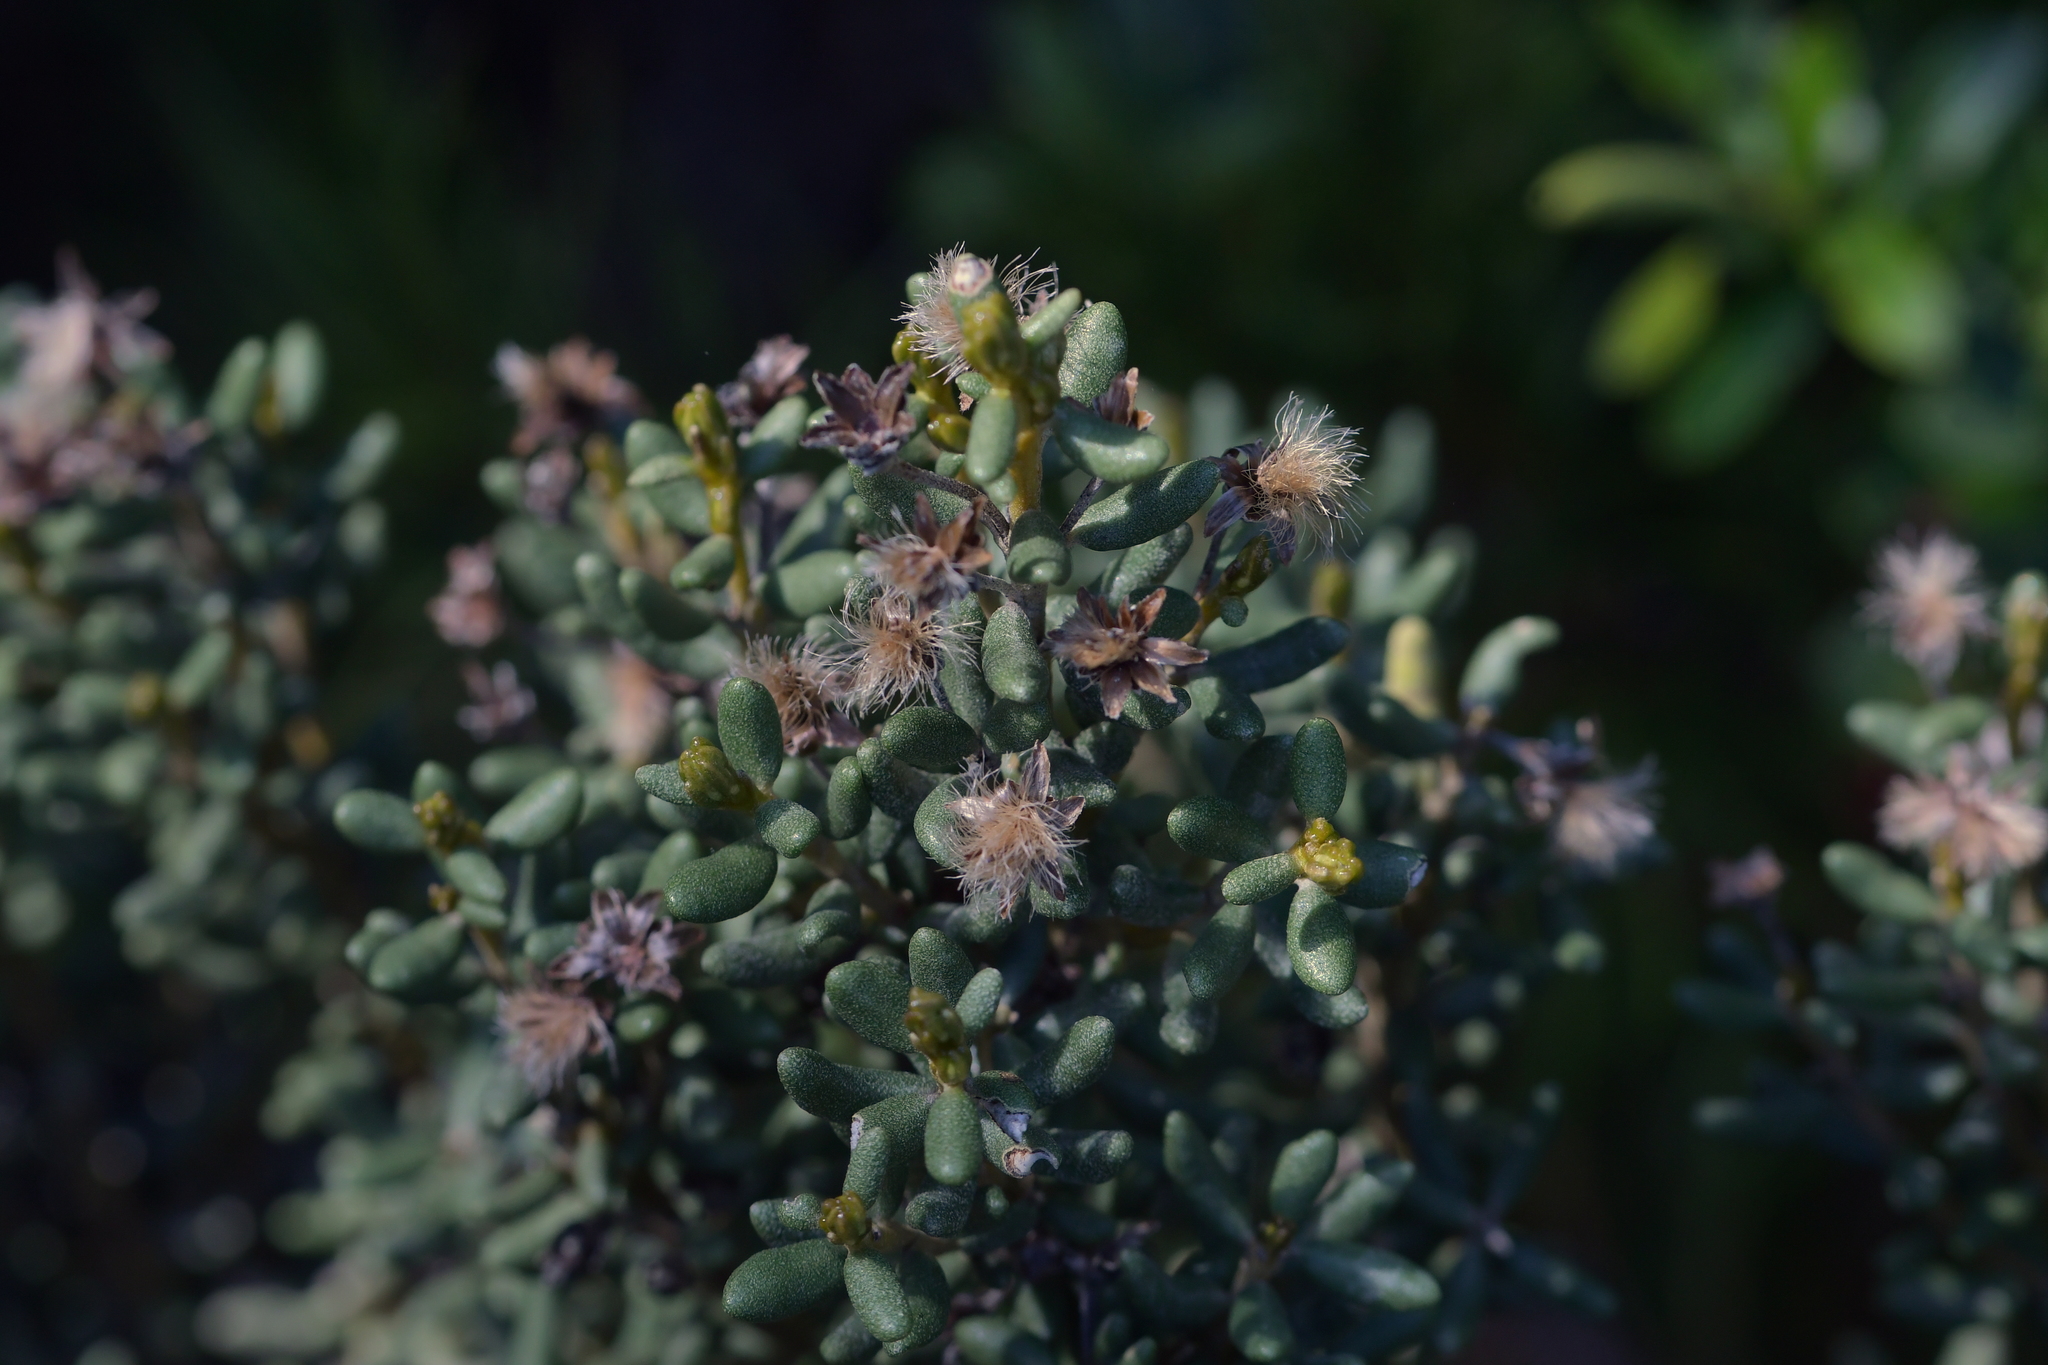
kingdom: Plantae
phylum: Tracheophyta
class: Magnoliopsida
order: Asterales
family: Asteraceae
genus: Olearia
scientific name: Olearia cymbifolia
